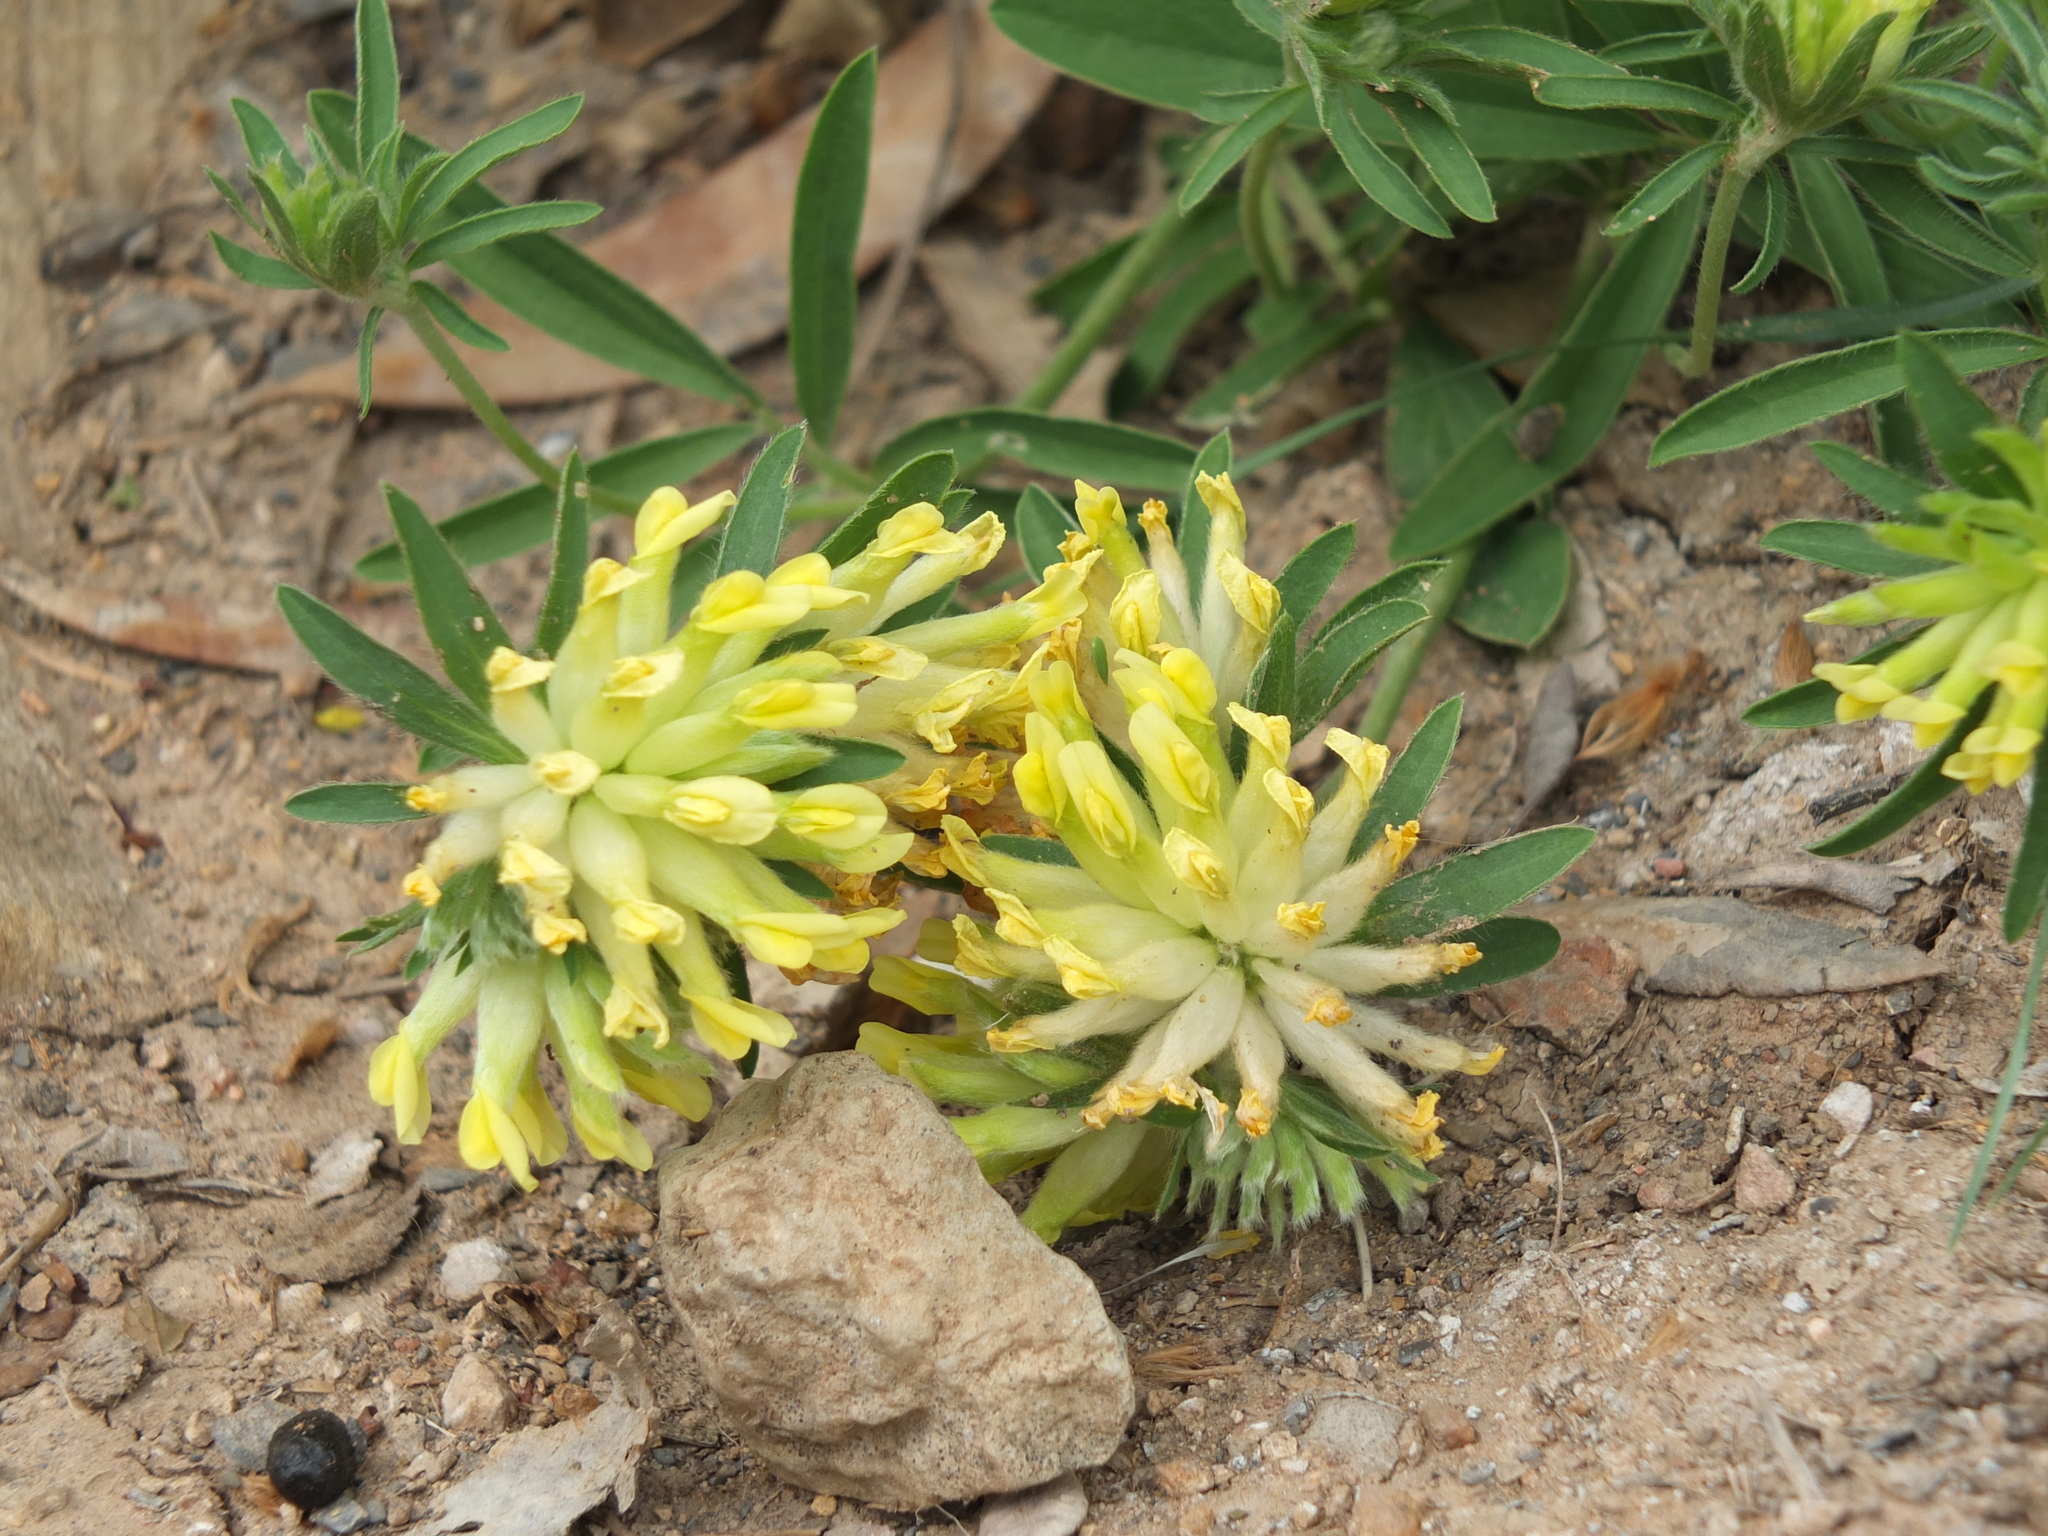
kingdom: Plantae
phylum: Tracheophyta
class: Magnoliopsida
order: Fabales
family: Fabaceae
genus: Anthyllis
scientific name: Anthyllis vulneraria
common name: Kidney vetch
